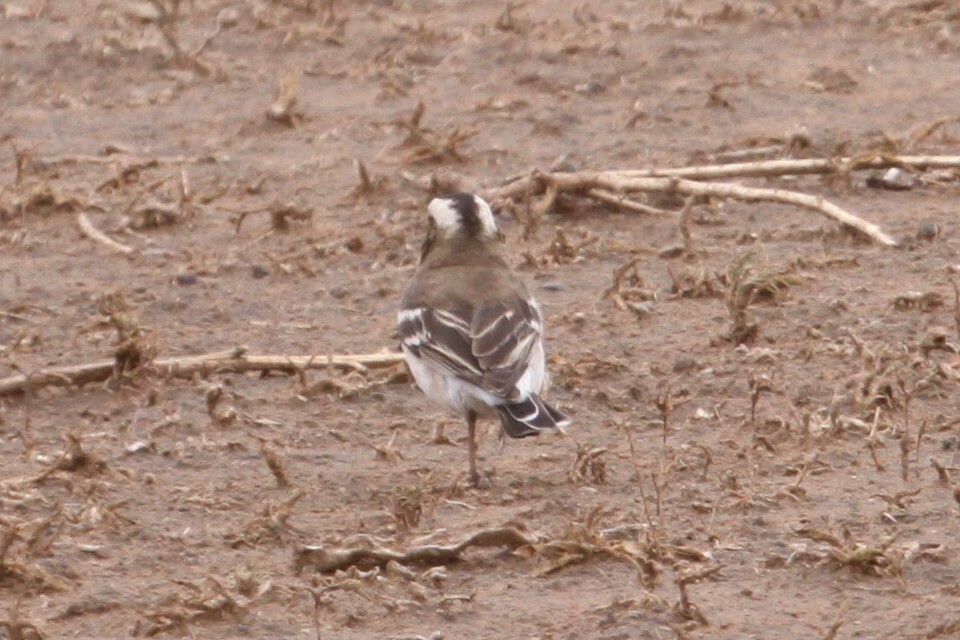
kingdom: Animalia
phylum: Chordata
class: Aves
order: Passeriformes
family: Passeridae
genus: Plocepasser
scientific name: Plocepasser mahali
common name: White-browed sparrow-weaver
